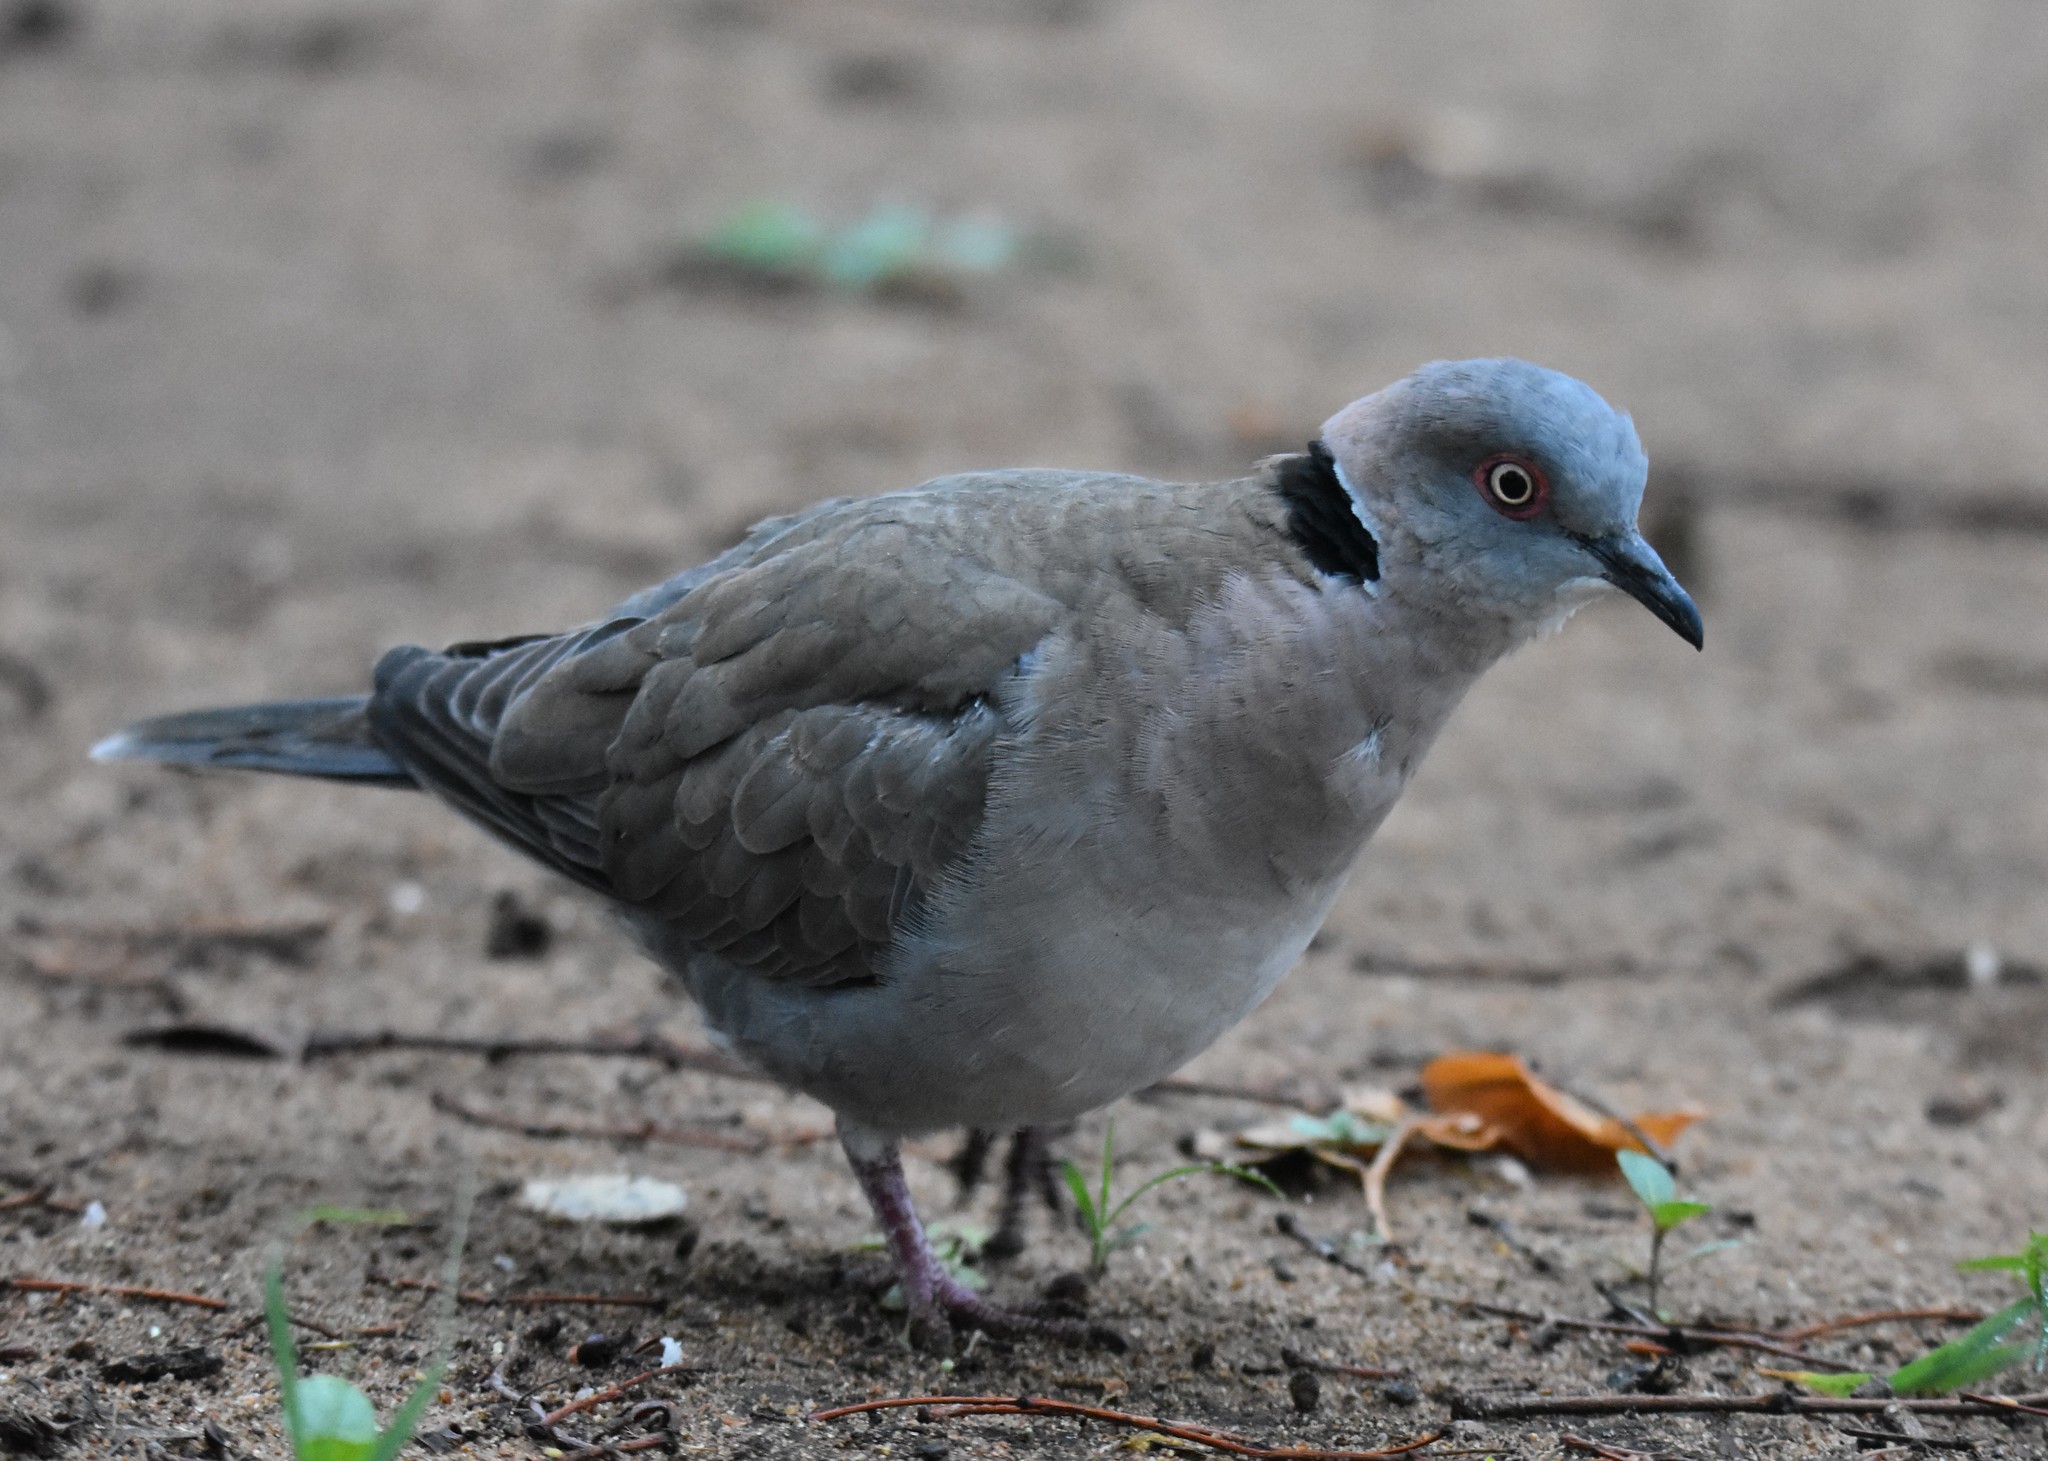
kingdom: Animalia
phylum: Chordata
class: Aves
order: Columbiformes
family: Columbidae
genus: Streptopelia
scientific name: Streptopelia decipiens
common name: Mourning collared dove
